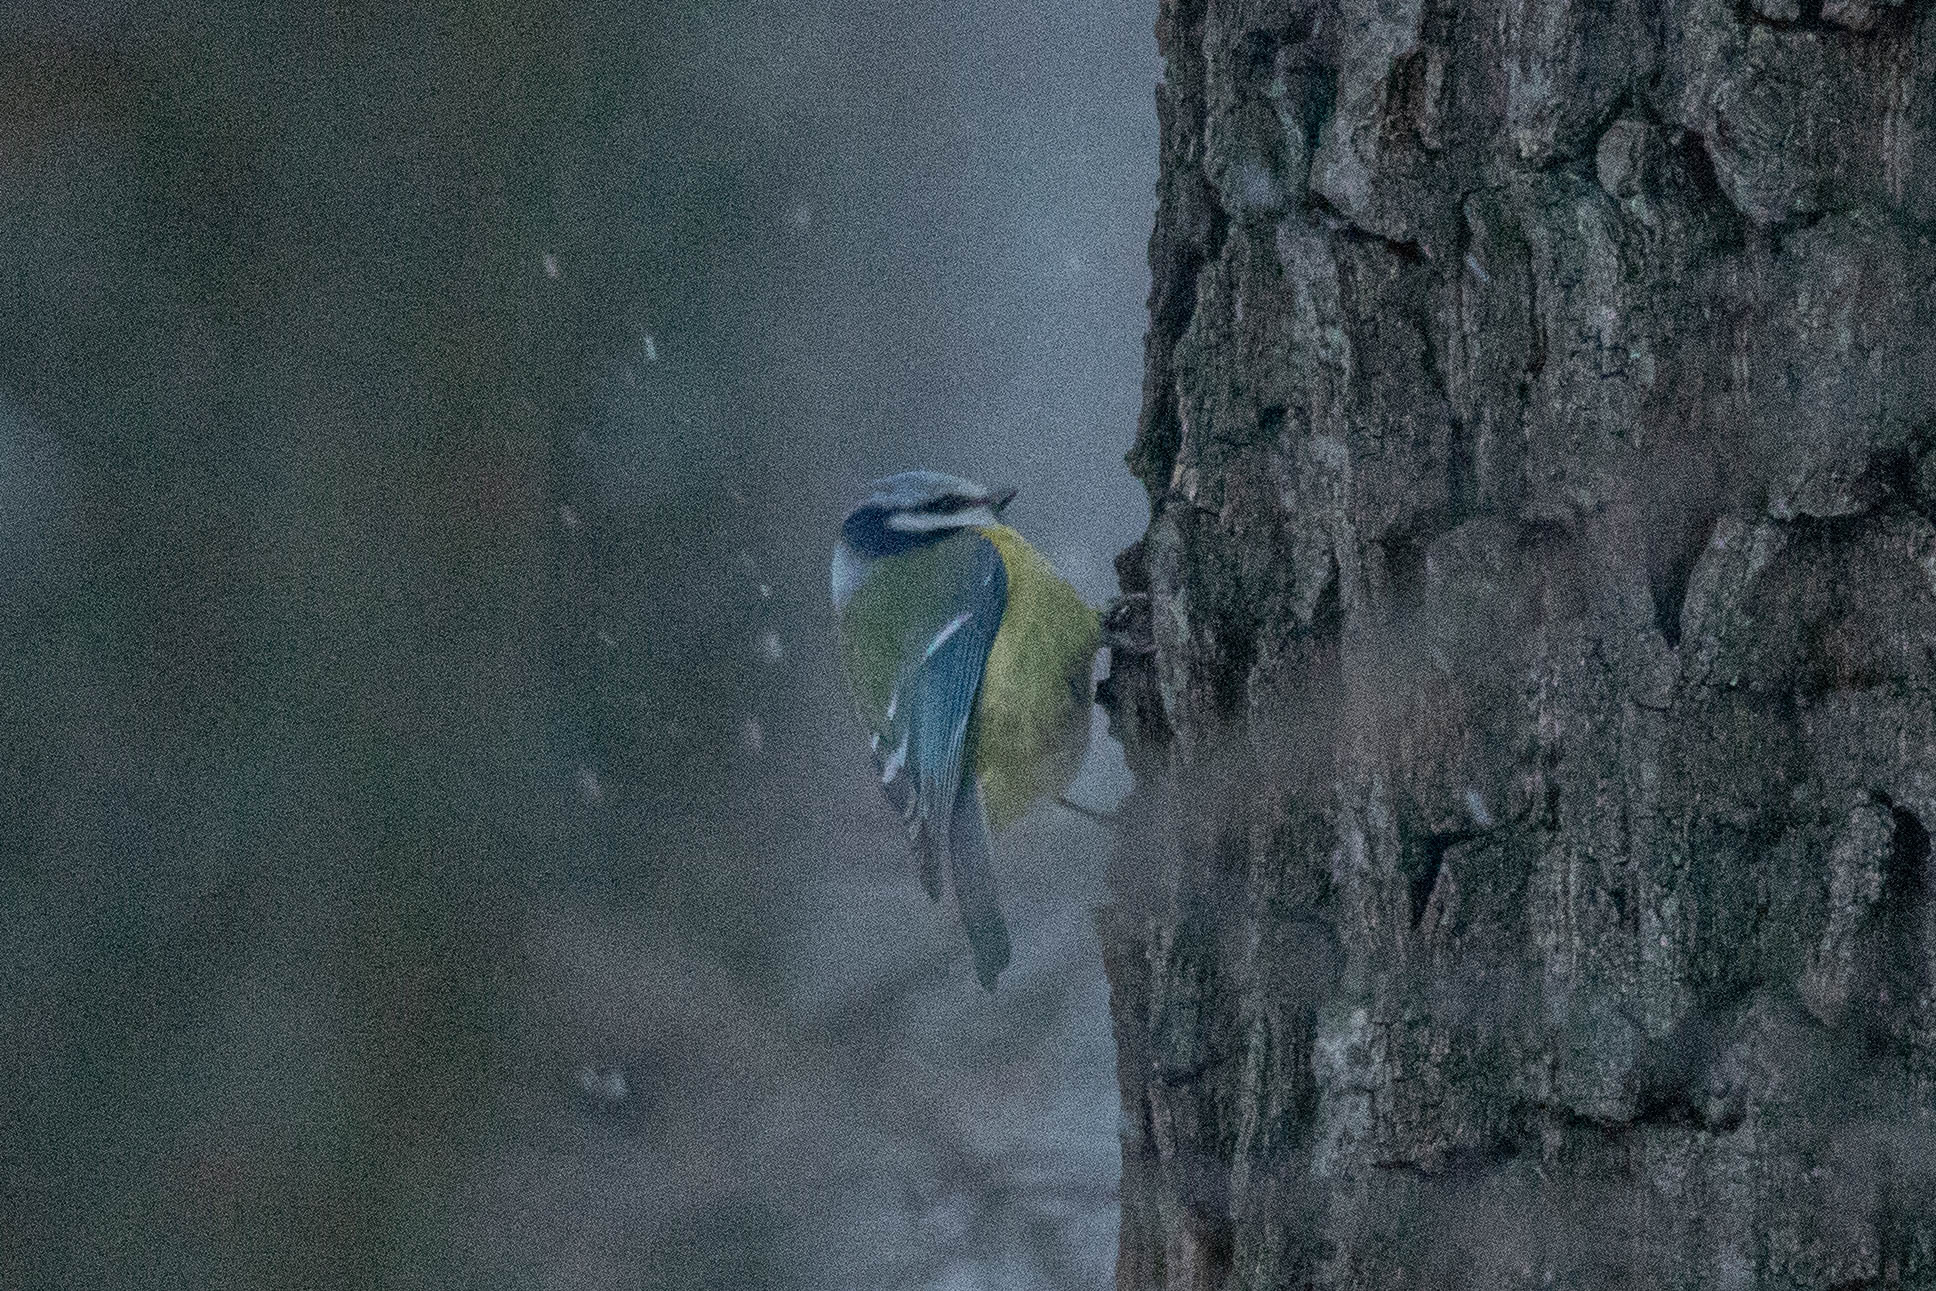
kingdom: Animalia
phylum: Chordata
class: Aves
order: Passeriformes
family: Paridae
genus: Cyanistes
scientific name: Cyanistes caeruleus
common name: Eurasian blue tit
